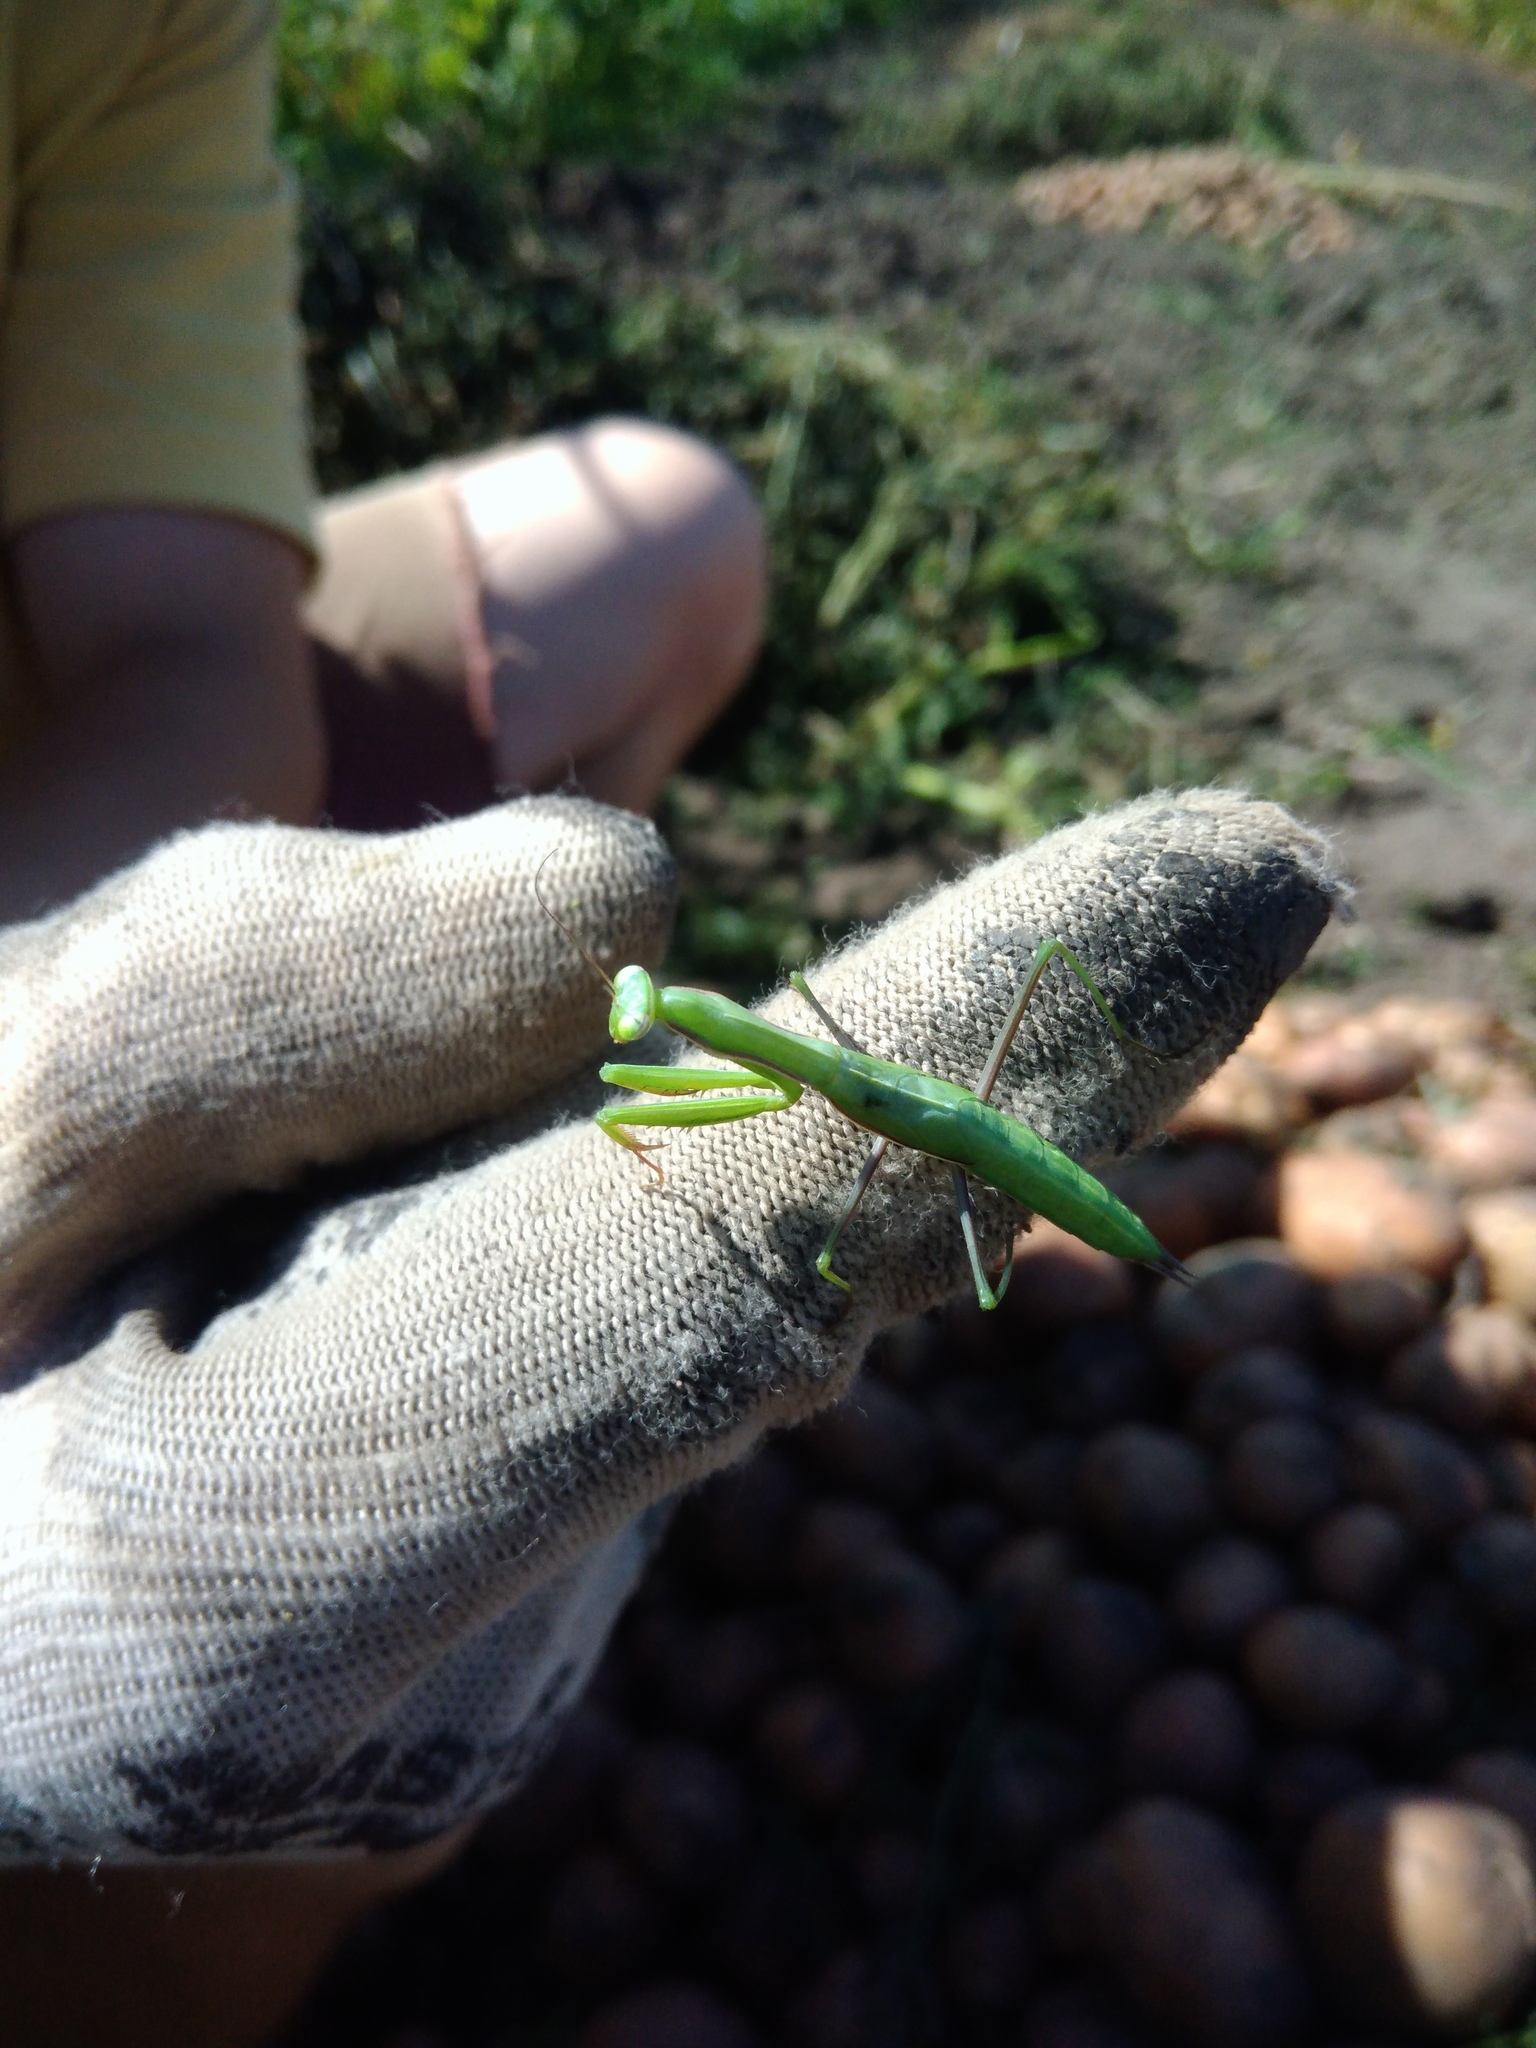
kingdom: Animalia
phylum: Arthropoda
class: Insecta
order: Mantodea
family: Mantidae
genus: Mantis
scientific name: Mantis religiosa
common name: Praying mantis
